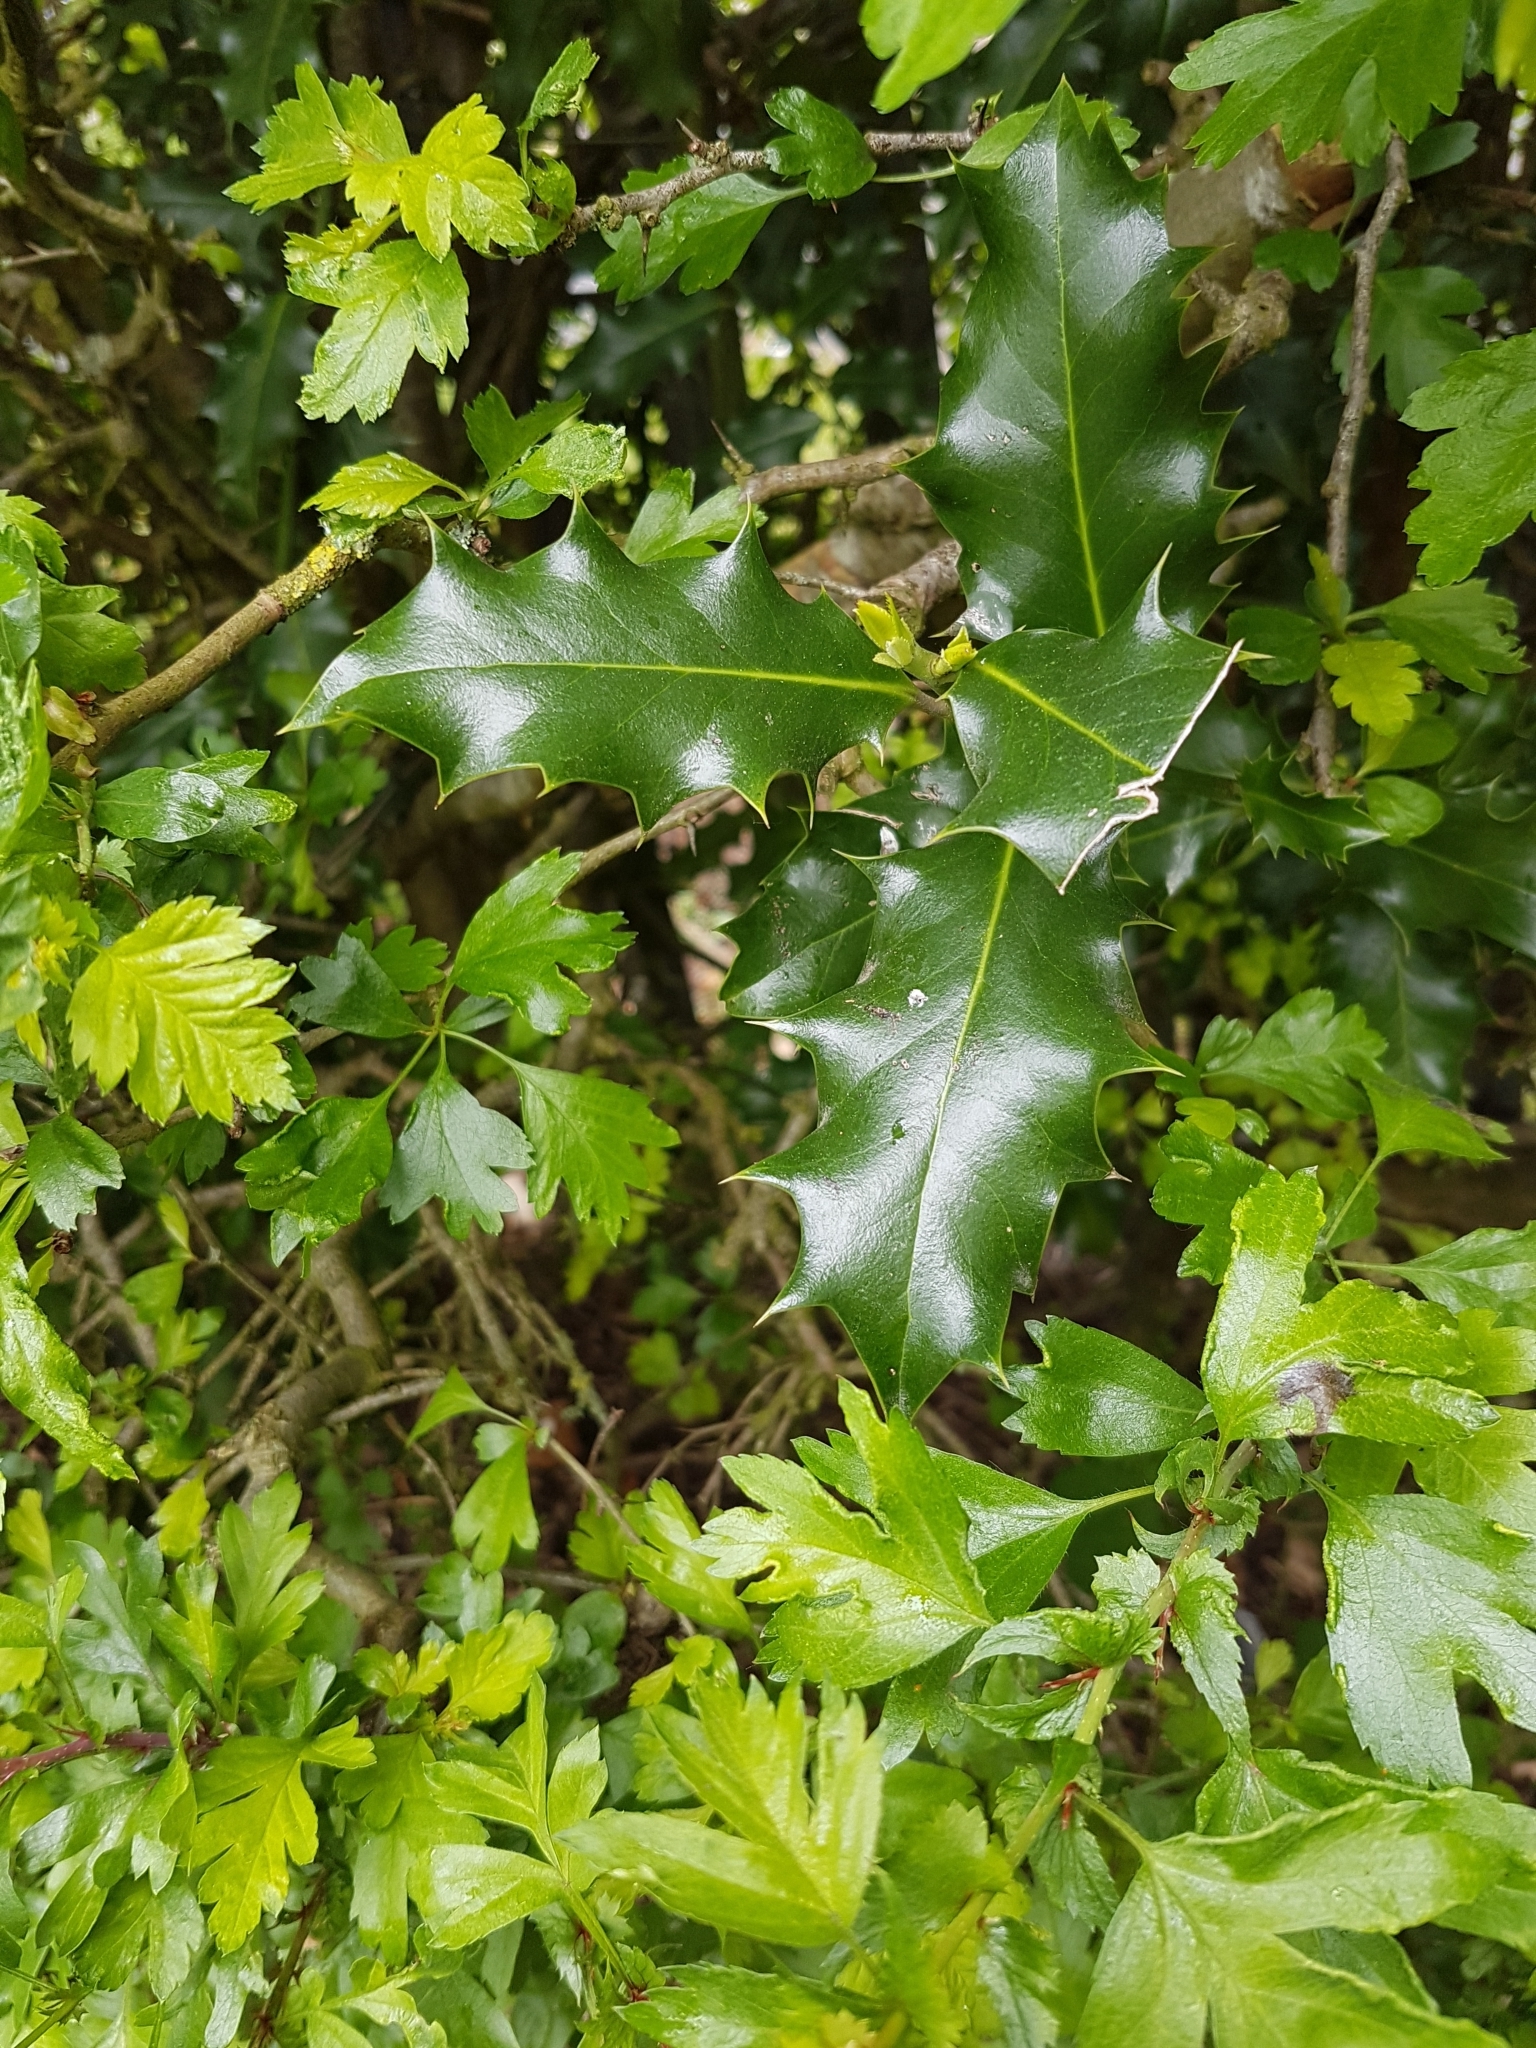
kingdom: Plantae
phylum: Tracheophyta
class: Magnoliopsida
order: Aquifoliales
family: Aquifoliaceae
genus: Ilex
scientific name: Ilex aquifolium
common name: English holly
